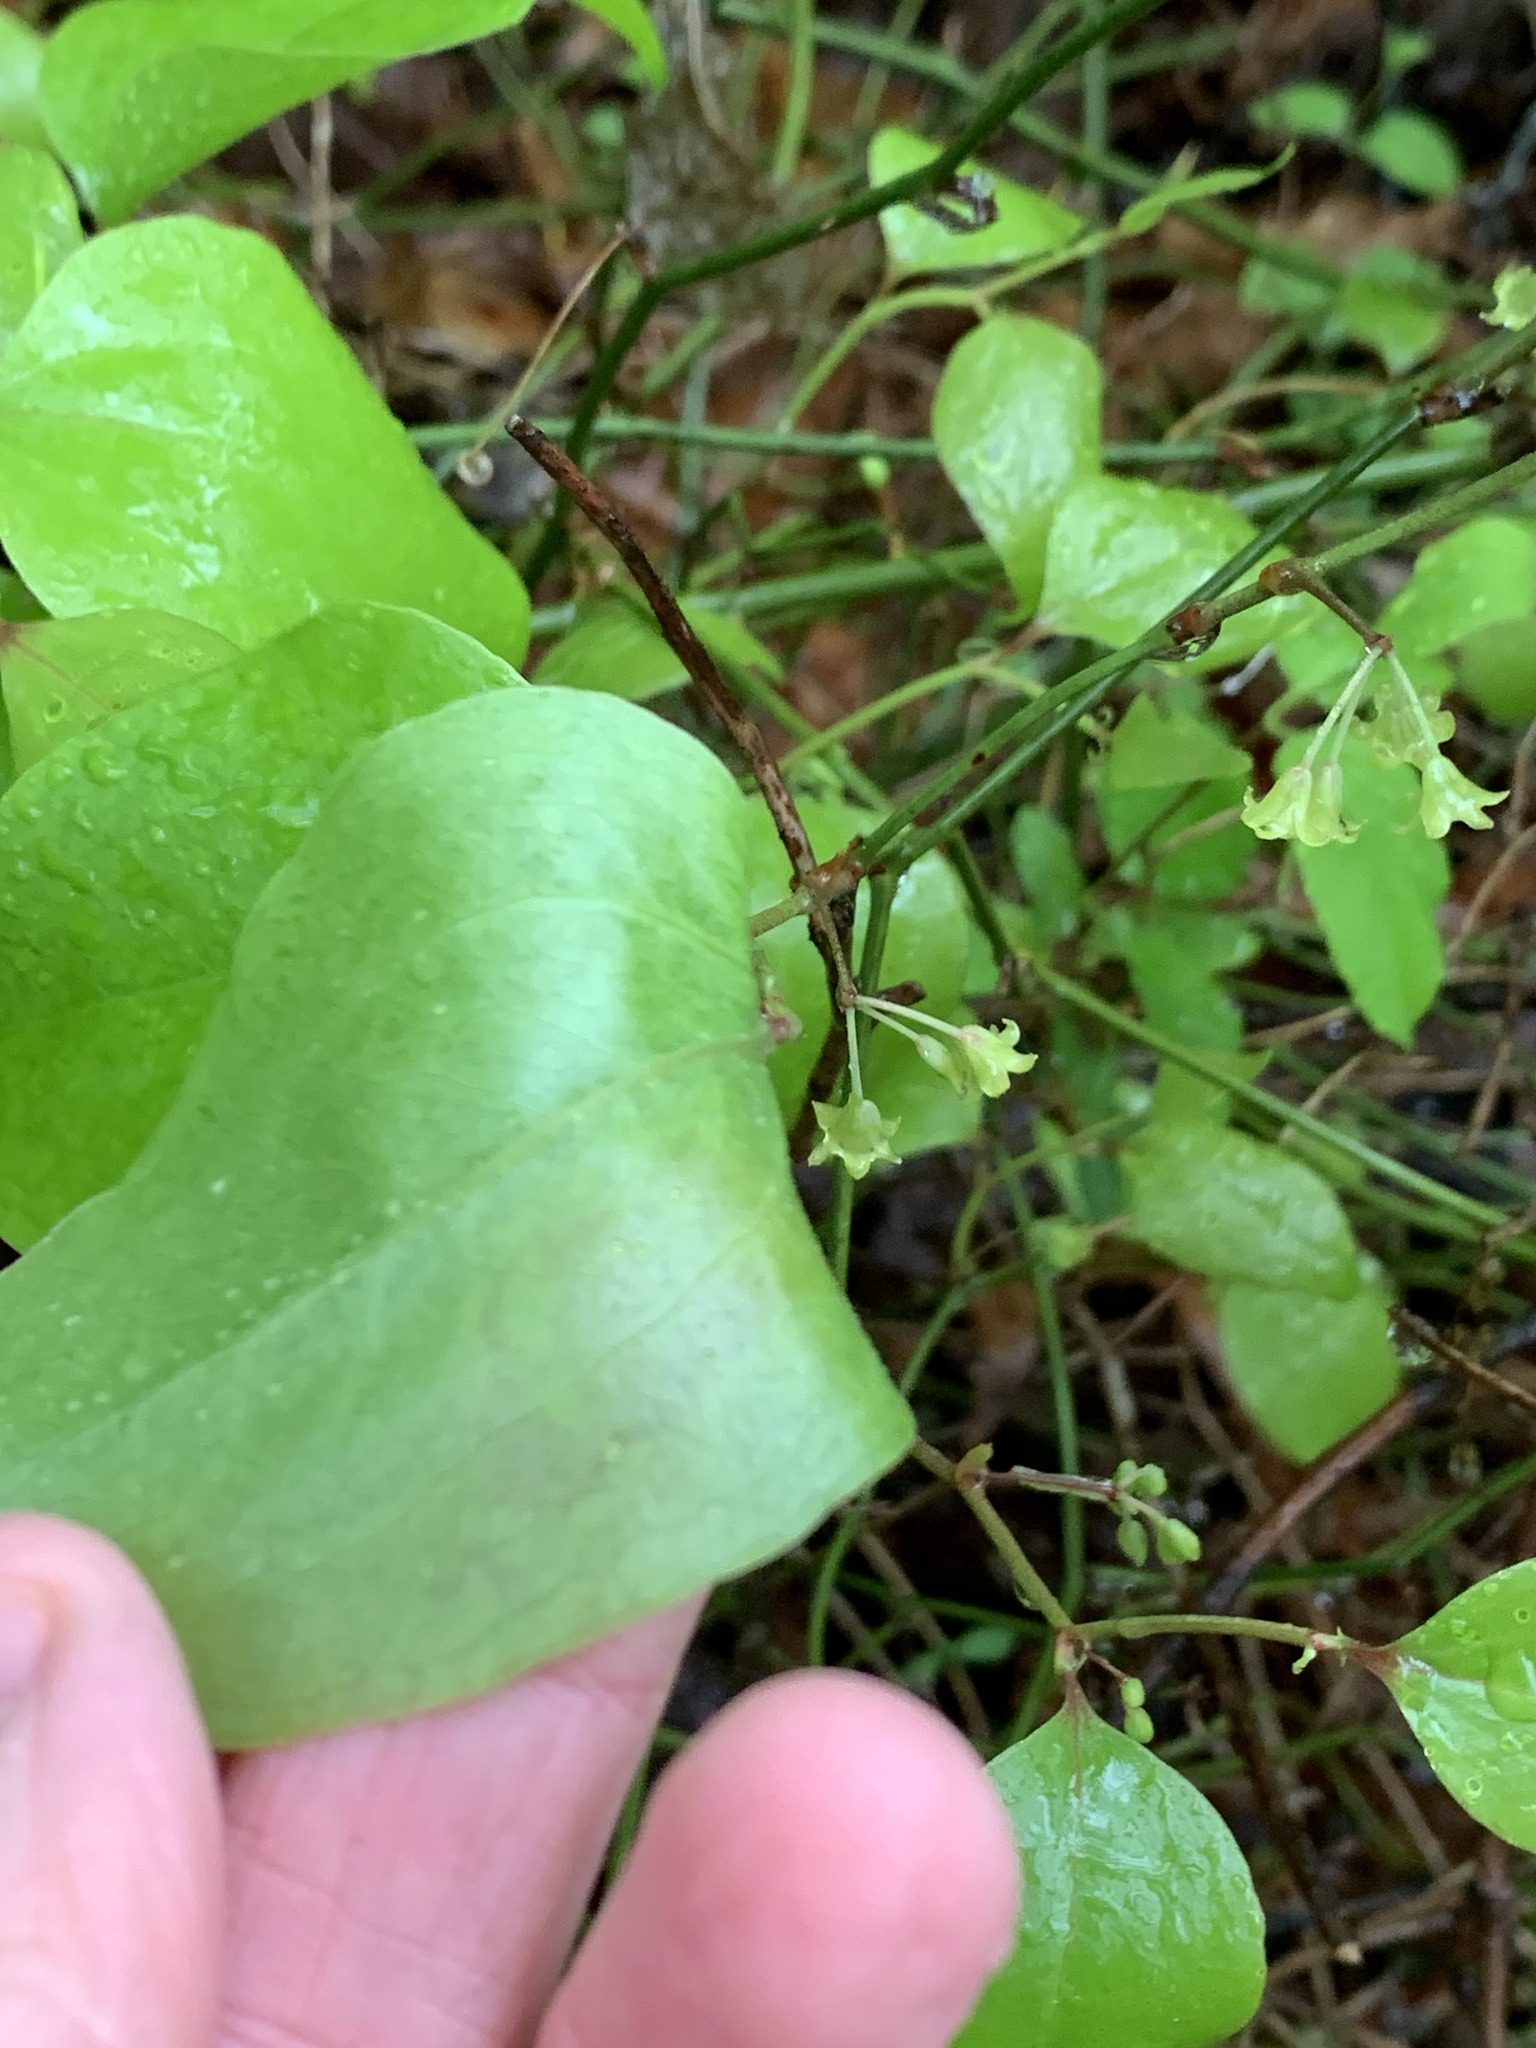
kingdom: Plantae
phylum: Tracheophyta
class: Liliopsida
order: Liliales
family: Smilacaceae
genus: Smilax
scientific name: Smilax rotundifolia
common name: Bullbriar
